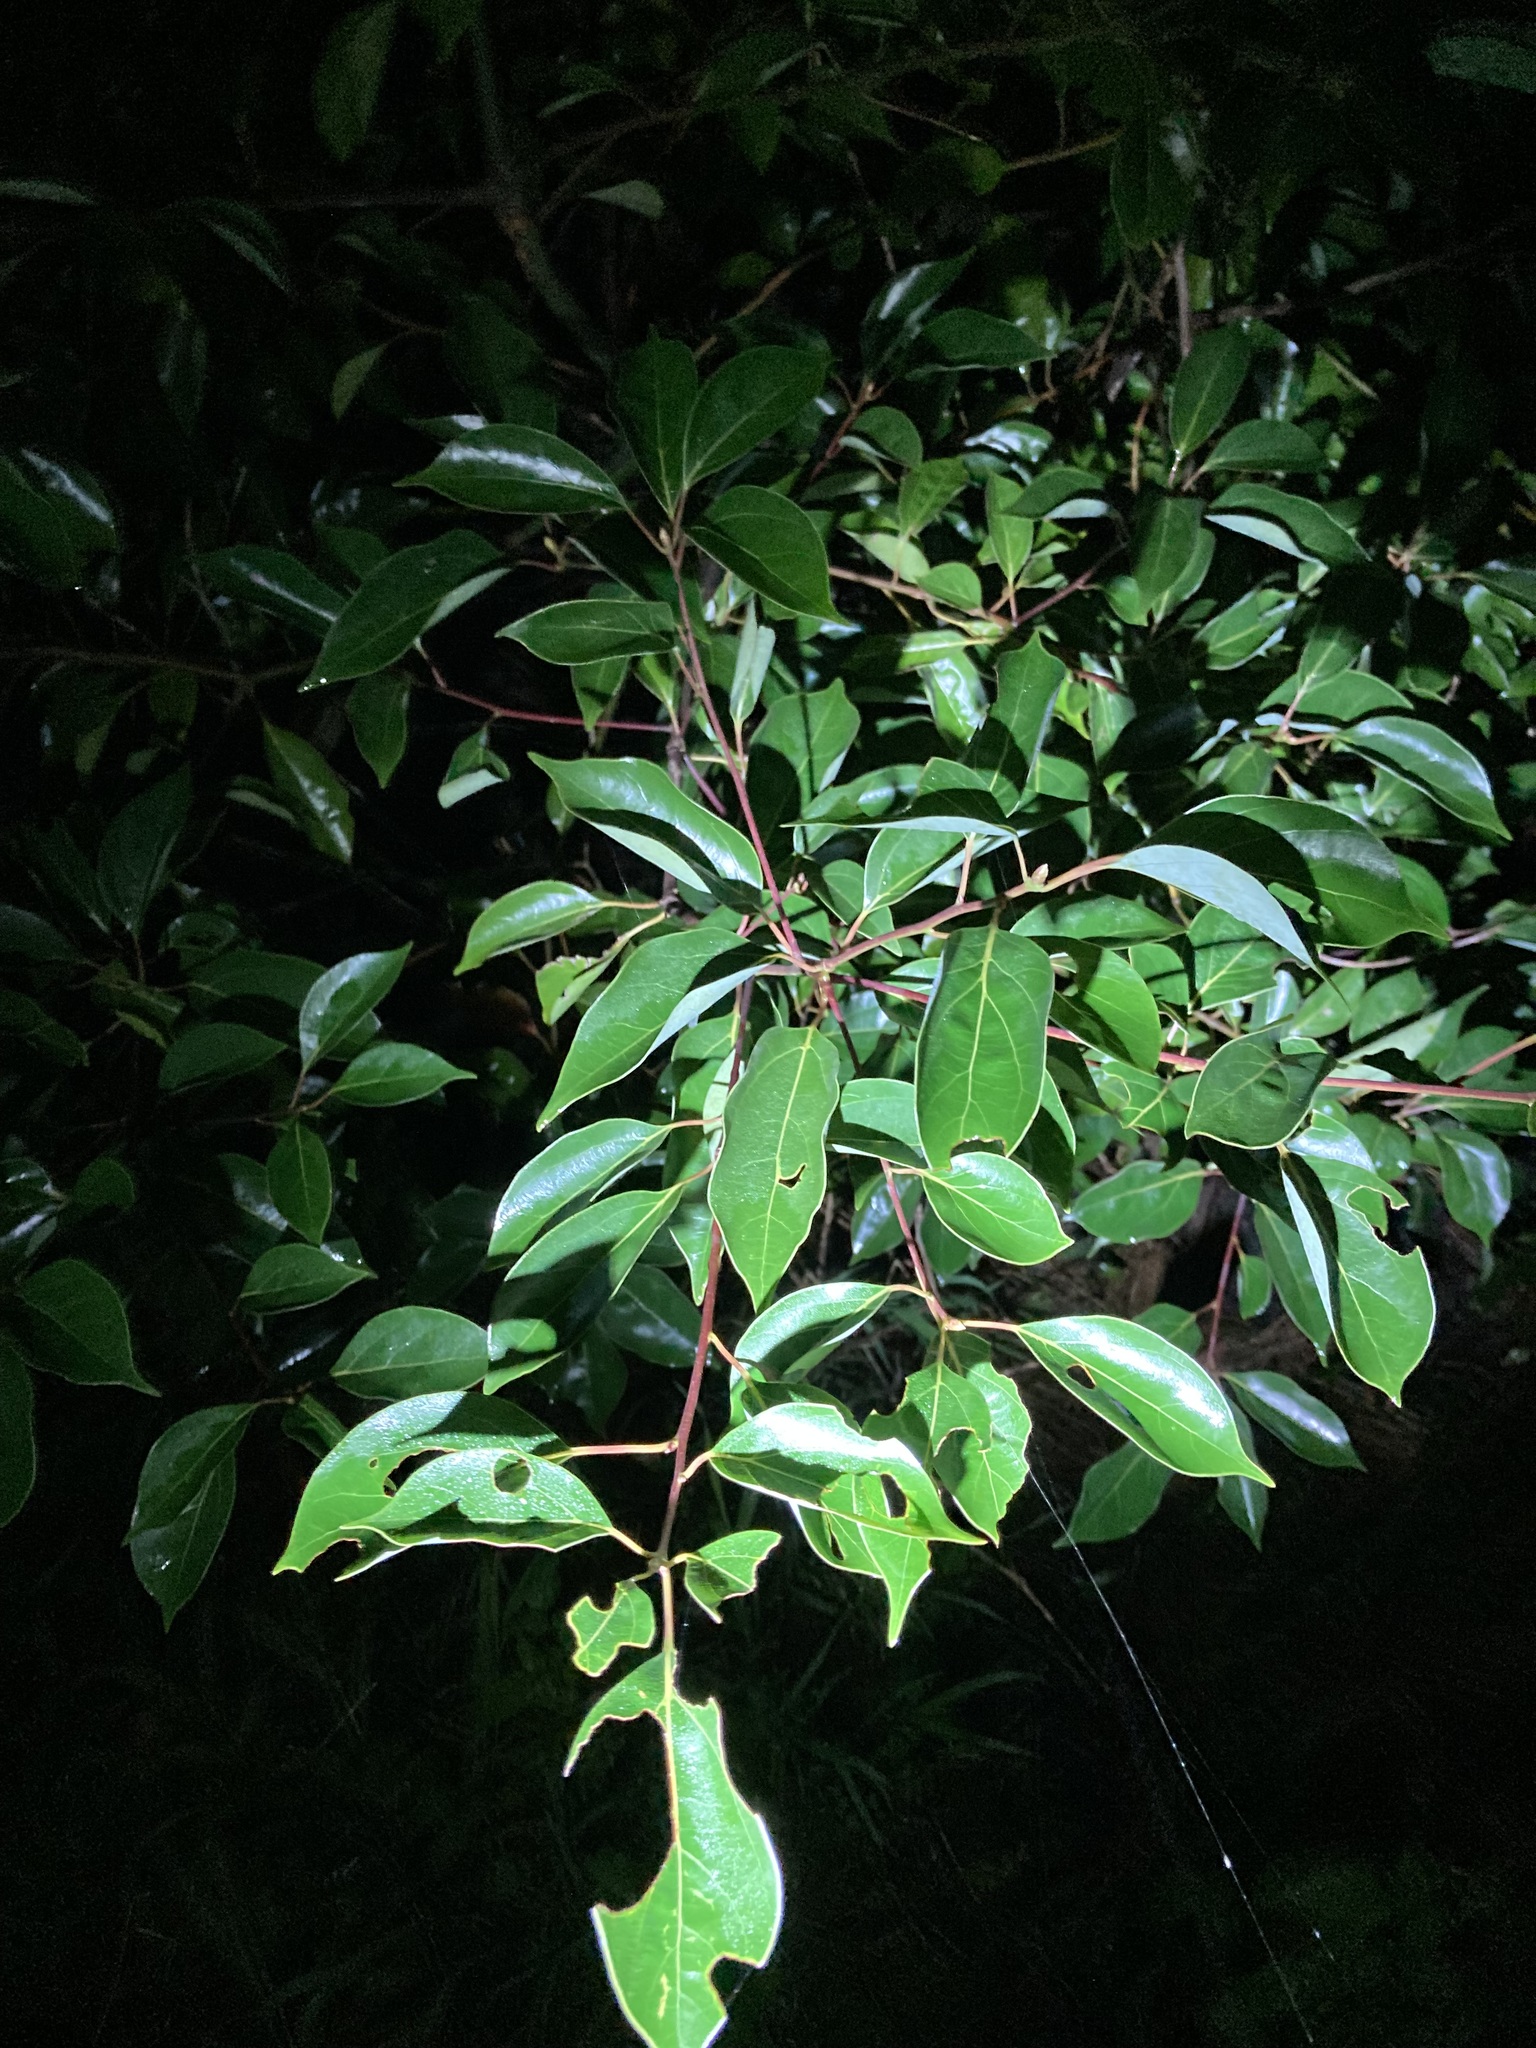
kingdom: Plantae
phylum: Tracheophyta
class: Magnoliopsida
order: Laurales
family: Lauraceae
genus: Cinnamomum
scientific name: Cinnamomum camphora
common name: Camphortree
